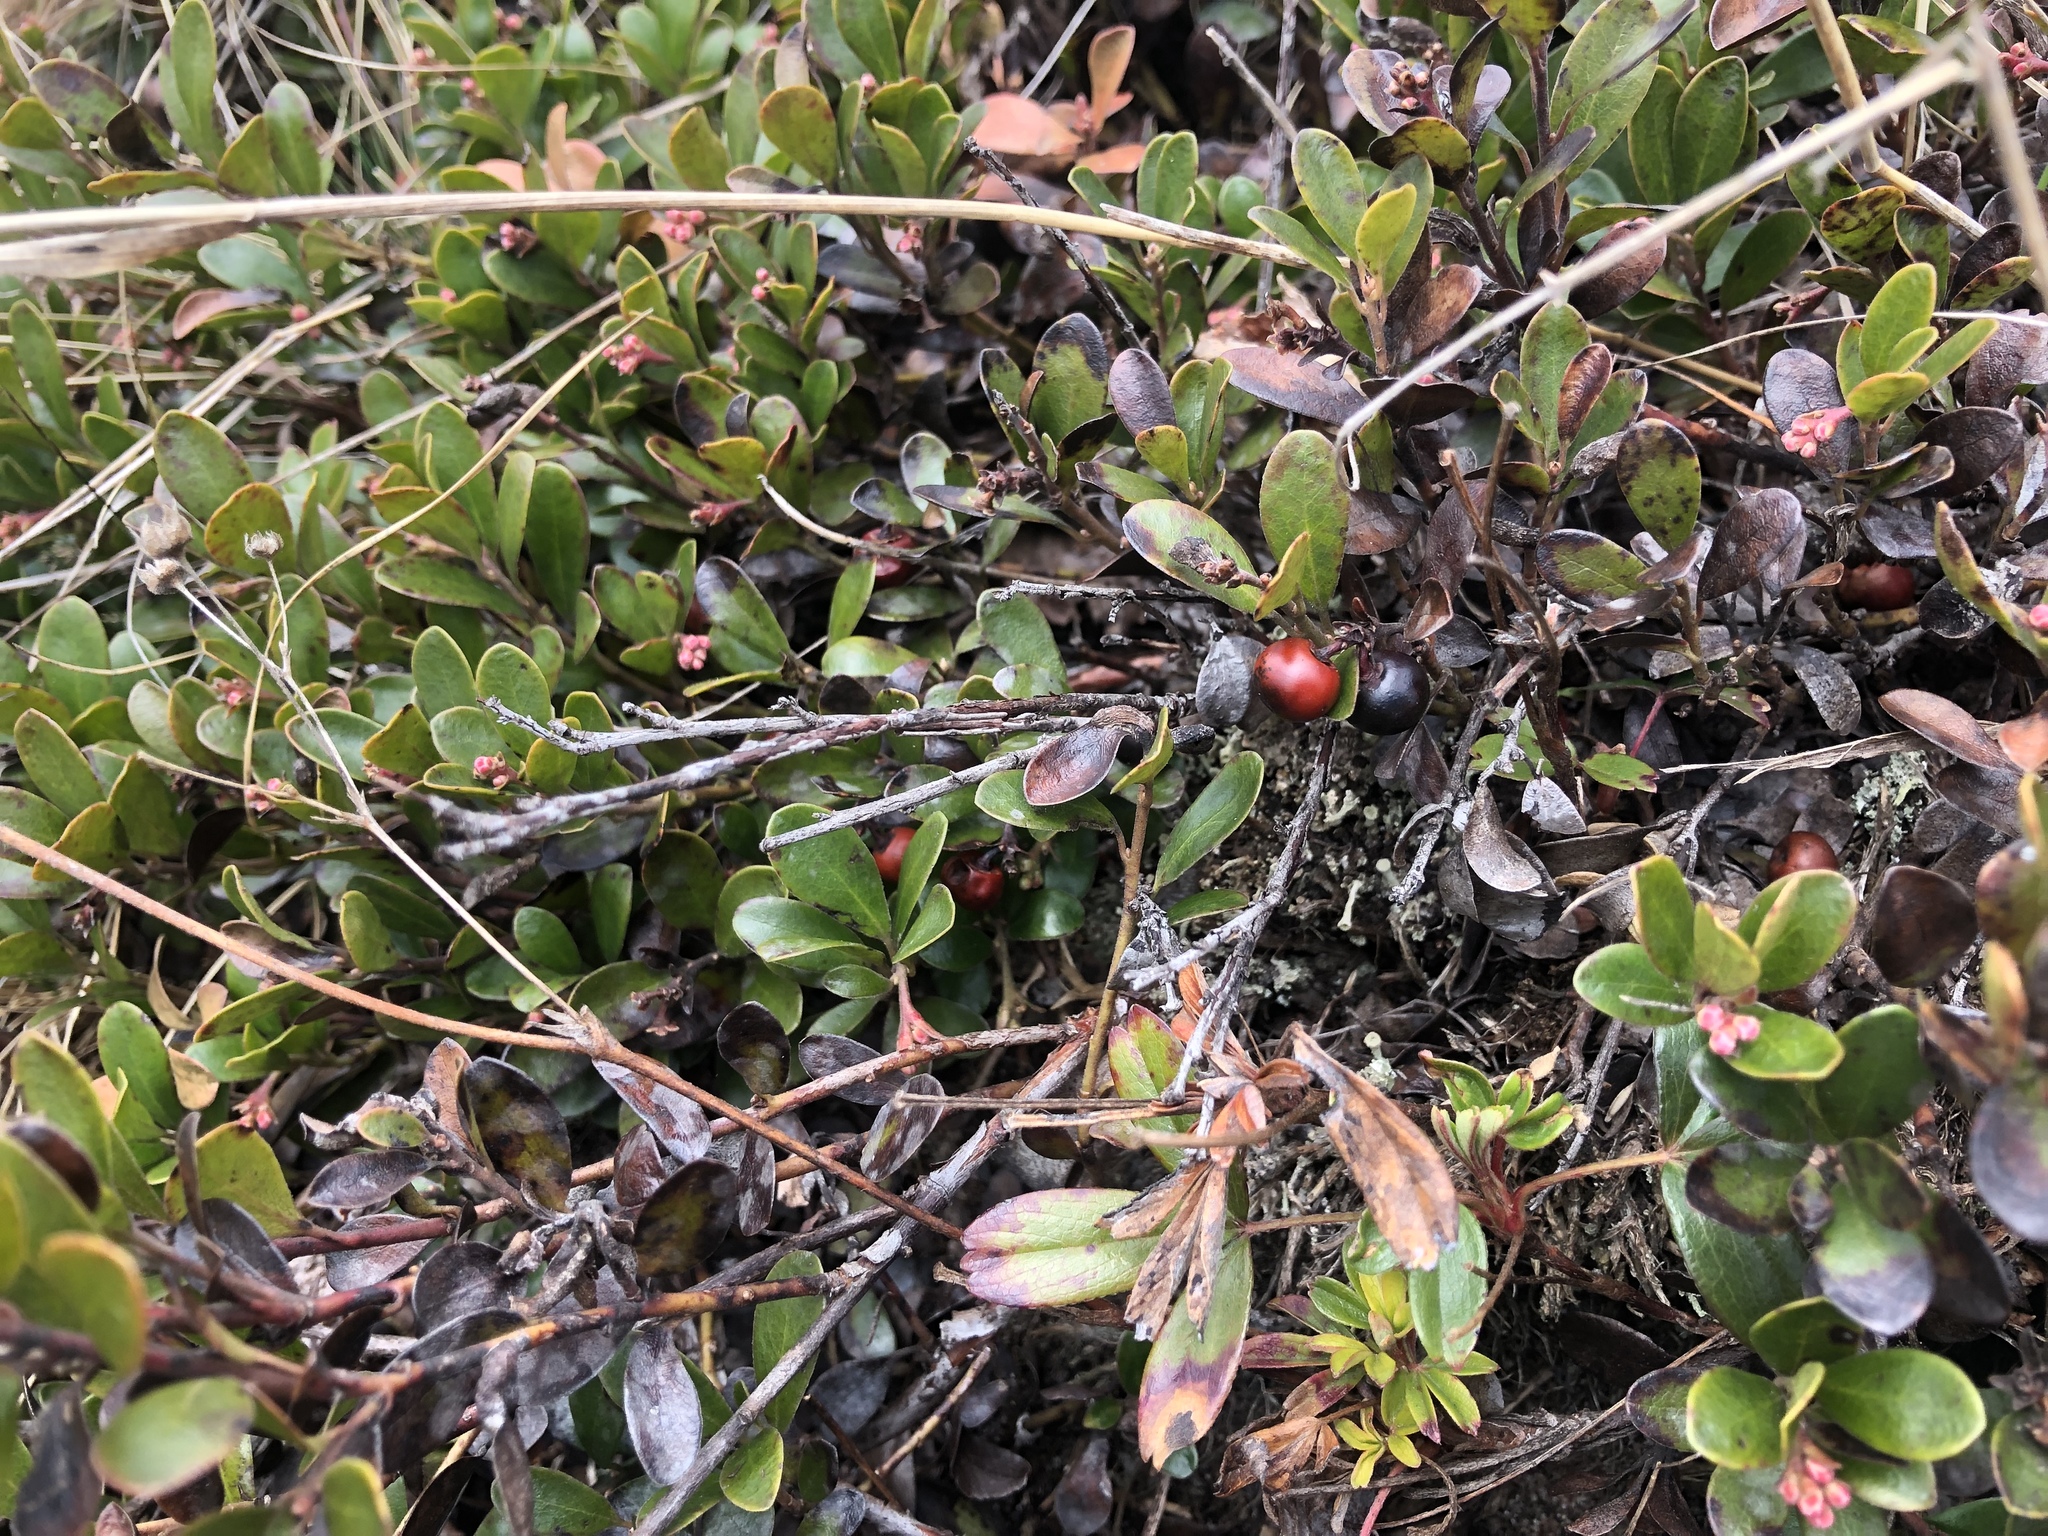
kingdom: Plantae
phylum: Tracheophyta
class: Magnoliopsida
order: Ericales
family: Ericaceae
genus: Arctostaphylos
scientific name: Arctostaphylos uva-ursi
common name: Bearberry
